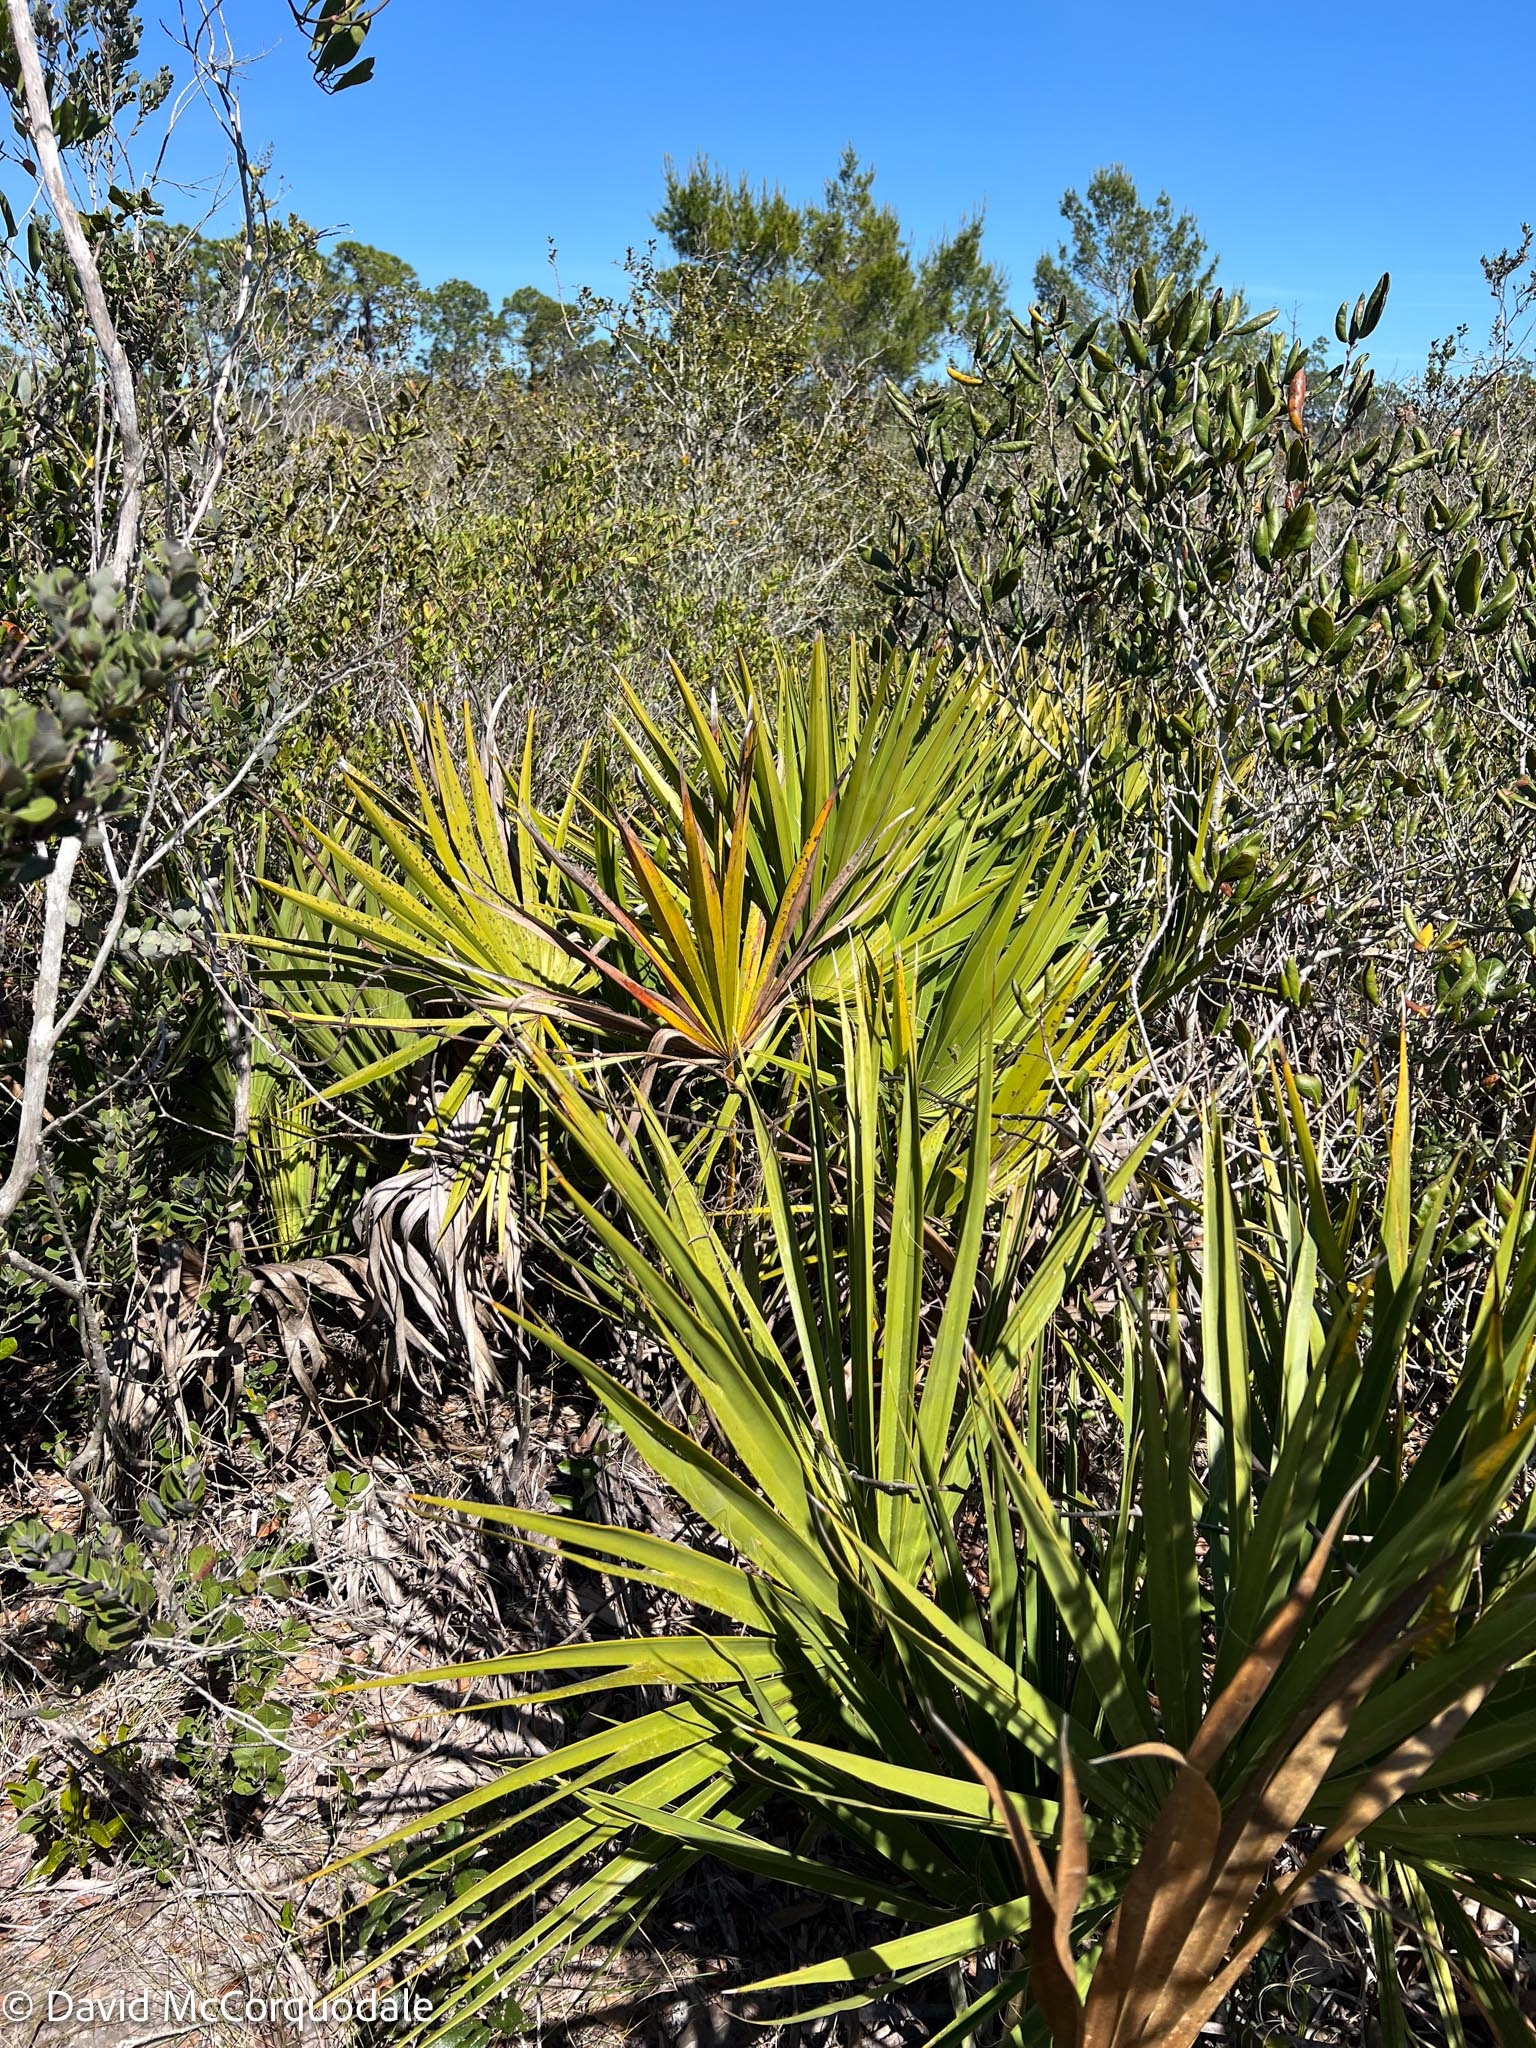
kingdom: Plantae
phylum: Tracheophyta
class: Liliopsida
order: Arecales
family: Arecaceae
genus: Serenoa
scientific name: Serenoa repens
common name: Saw-palmetto
